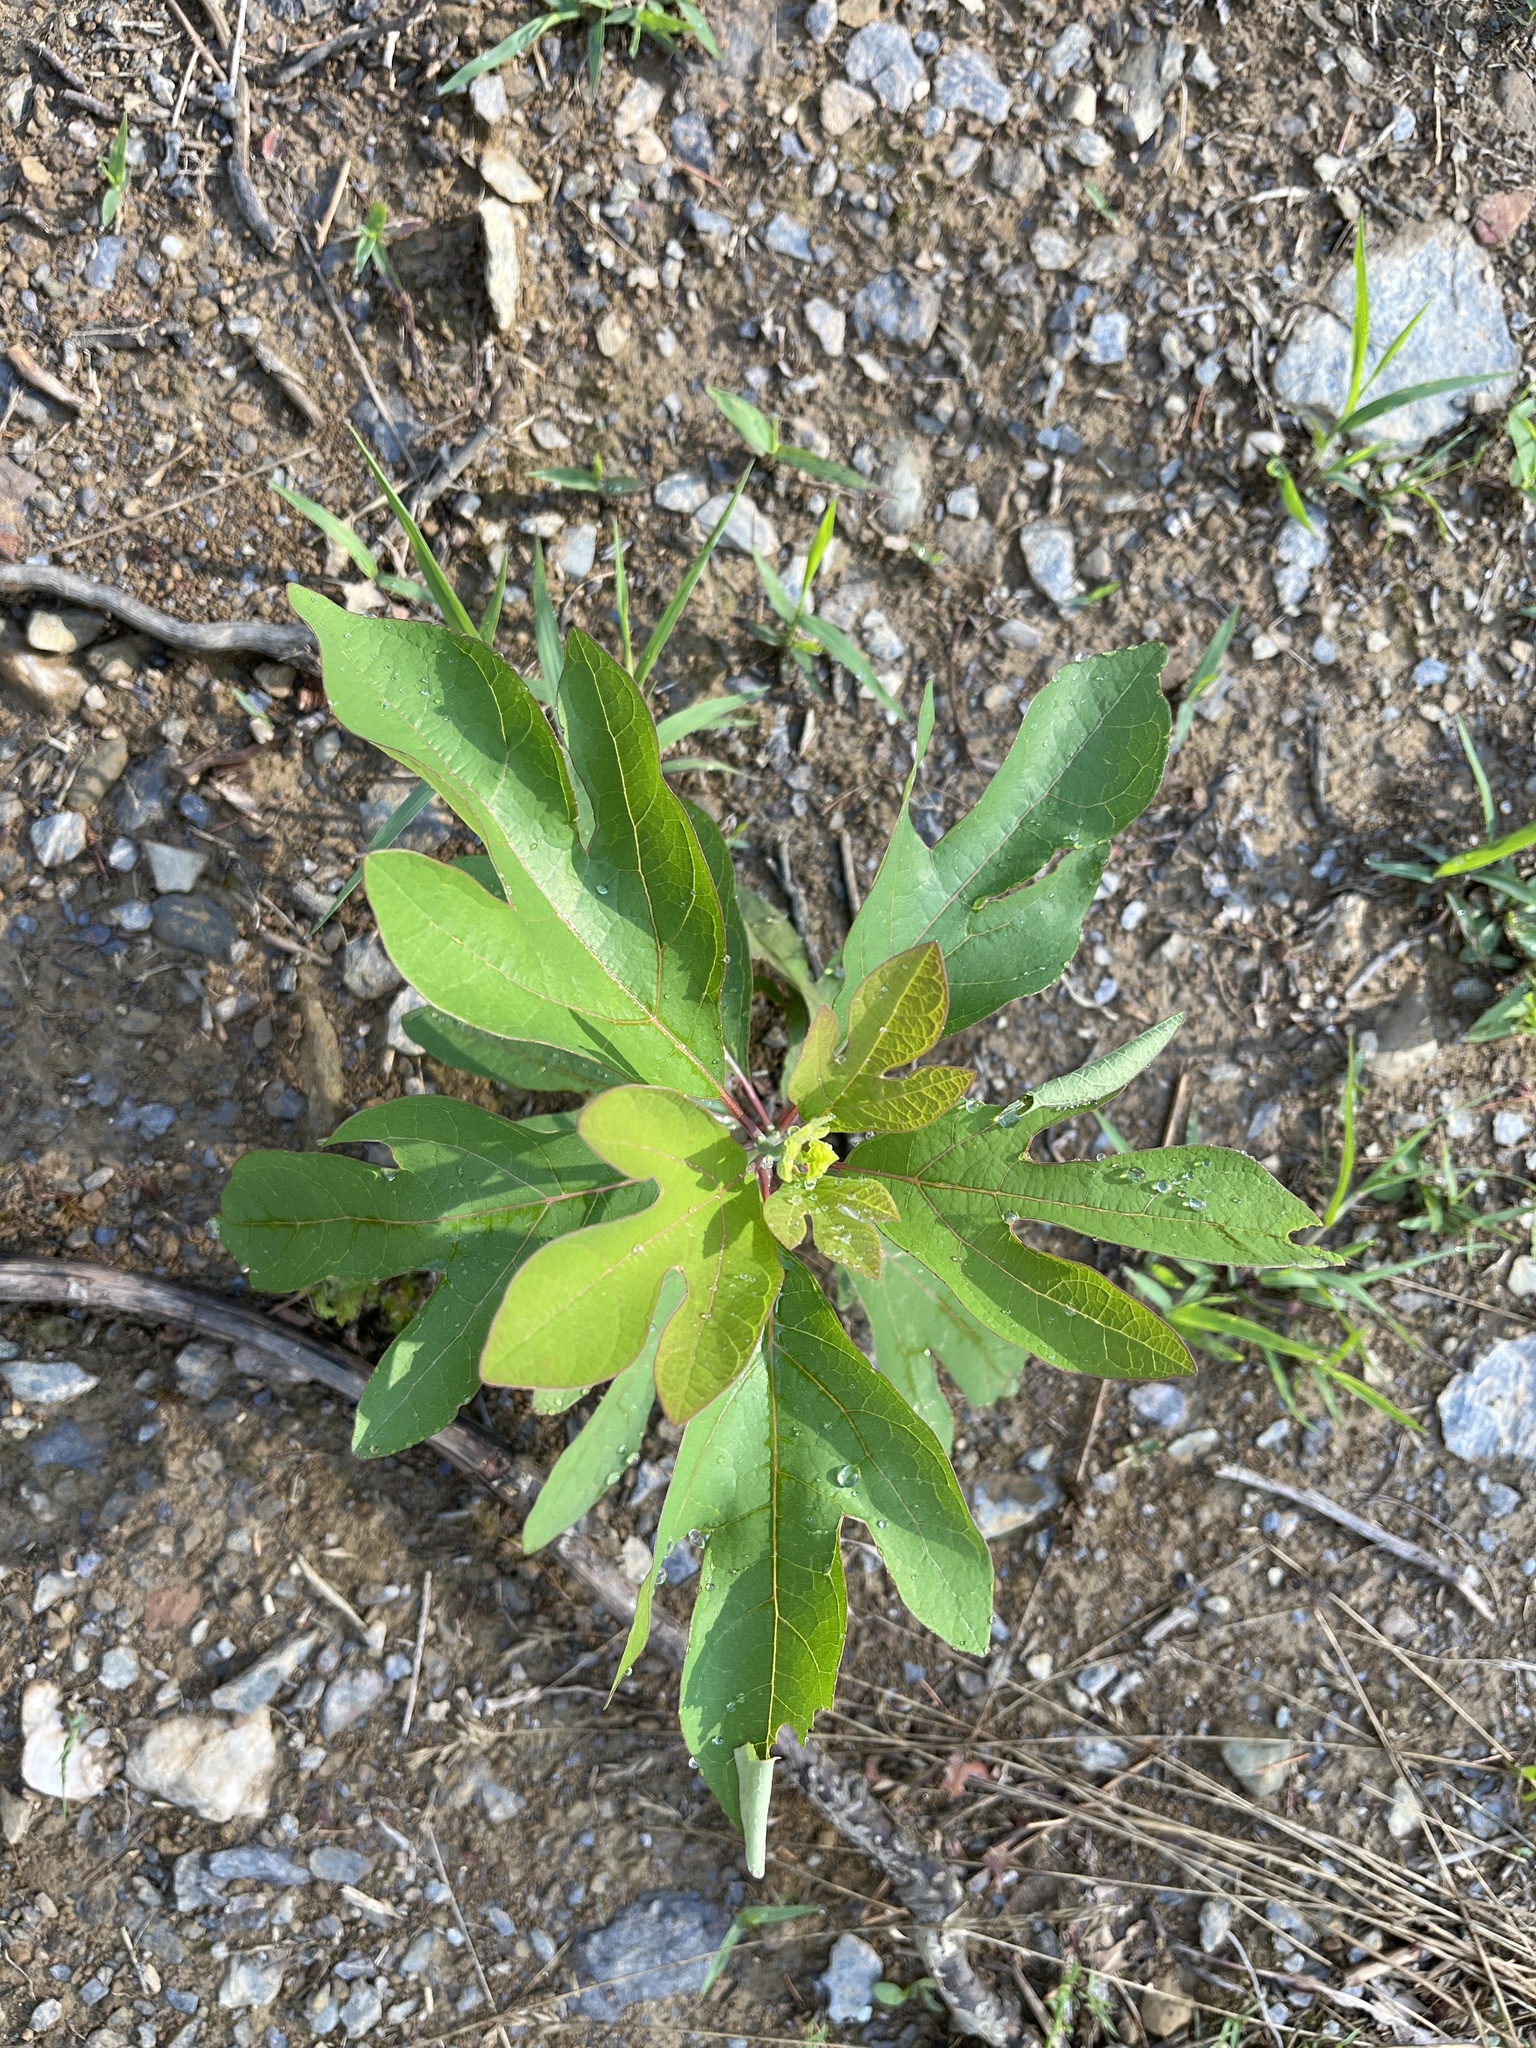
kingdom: Plantae
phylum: Tracheophyta
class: Magnoliopsida
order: Laurales
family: Lauraceae
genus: Sassafras
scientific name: Sassafras albidum
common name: Sassafras
